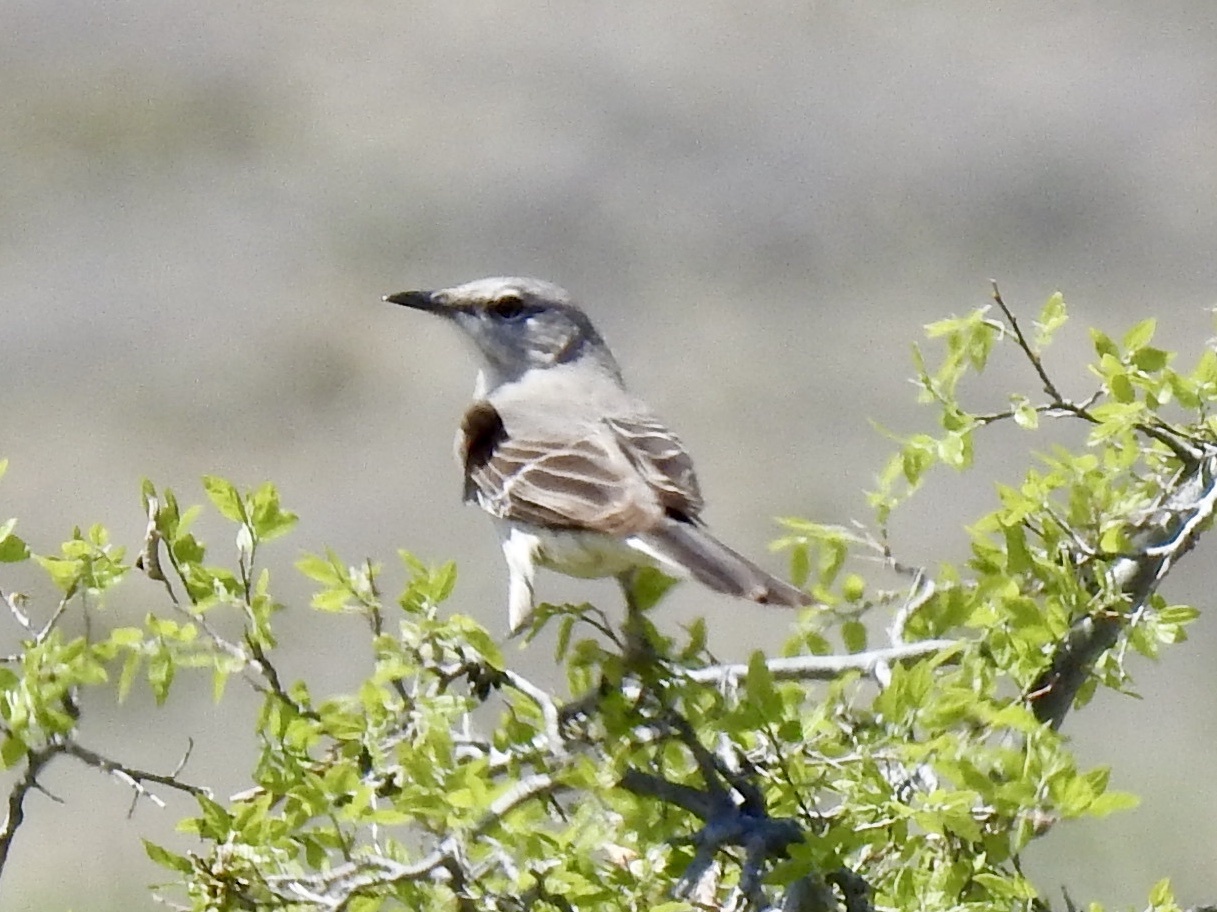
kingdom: Animalia
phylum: Chordata
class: Aves
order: Passeriformes
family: Mimidae
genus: Mimus
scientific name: Mimus polyglottos
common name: Northern mockingbird
